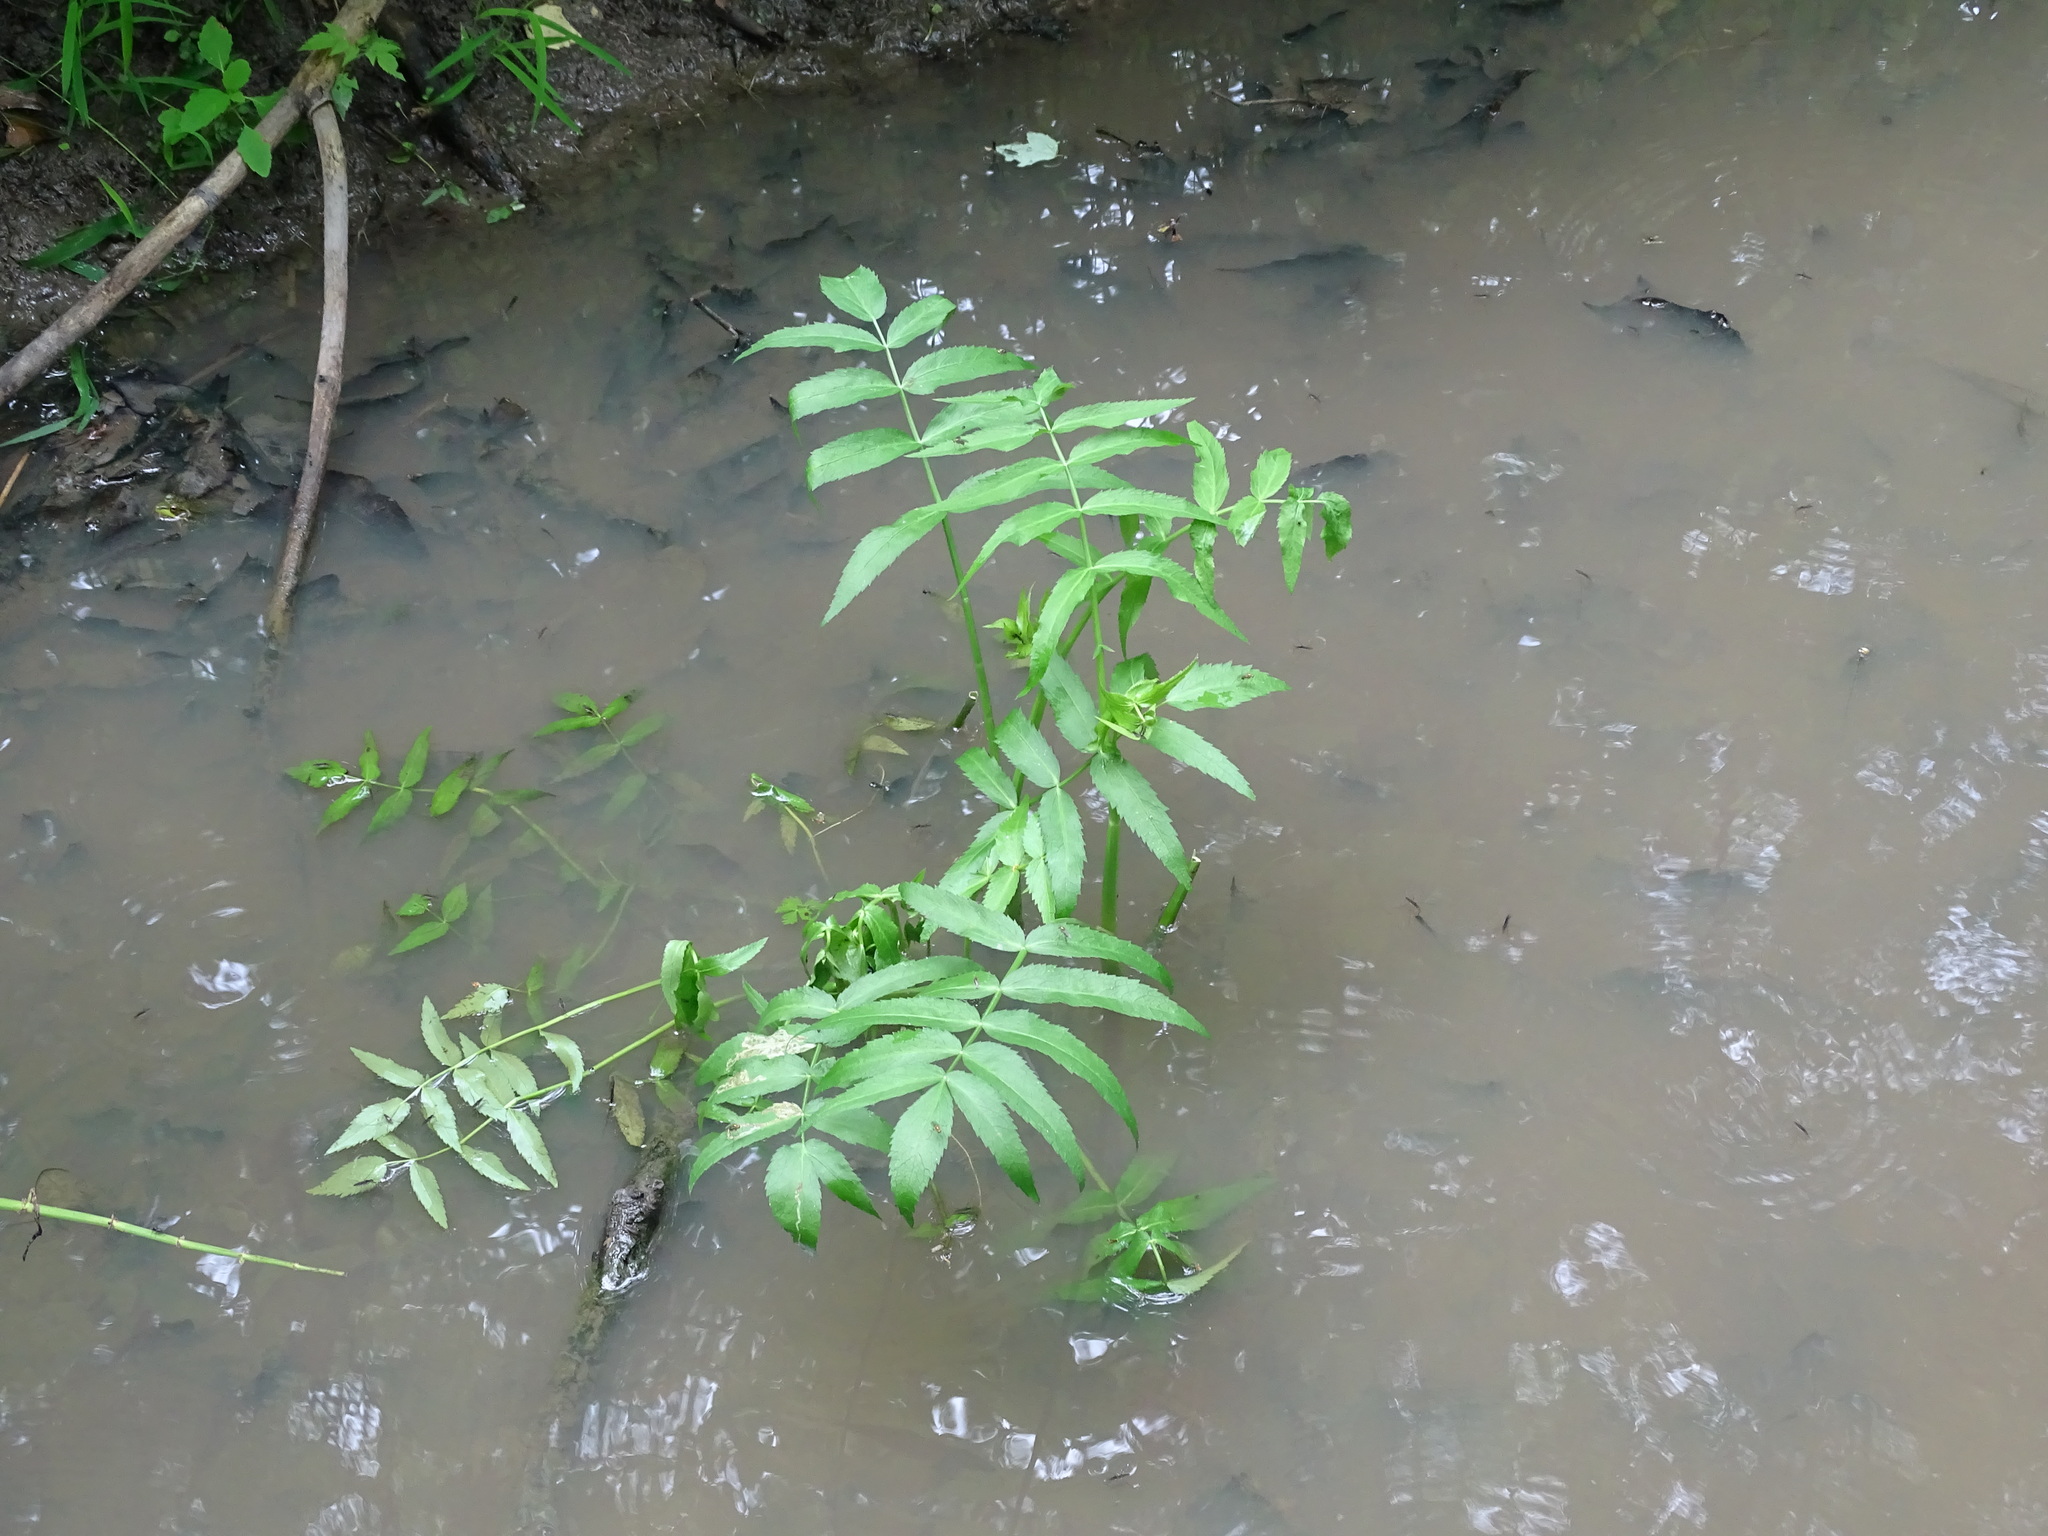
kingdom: Plantae
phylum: Tracheophyta
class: Magnoliopsida
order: Apiales
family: Apiaceae
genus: Sium
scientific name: Sium suave
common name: Hemlock water-parsnip
